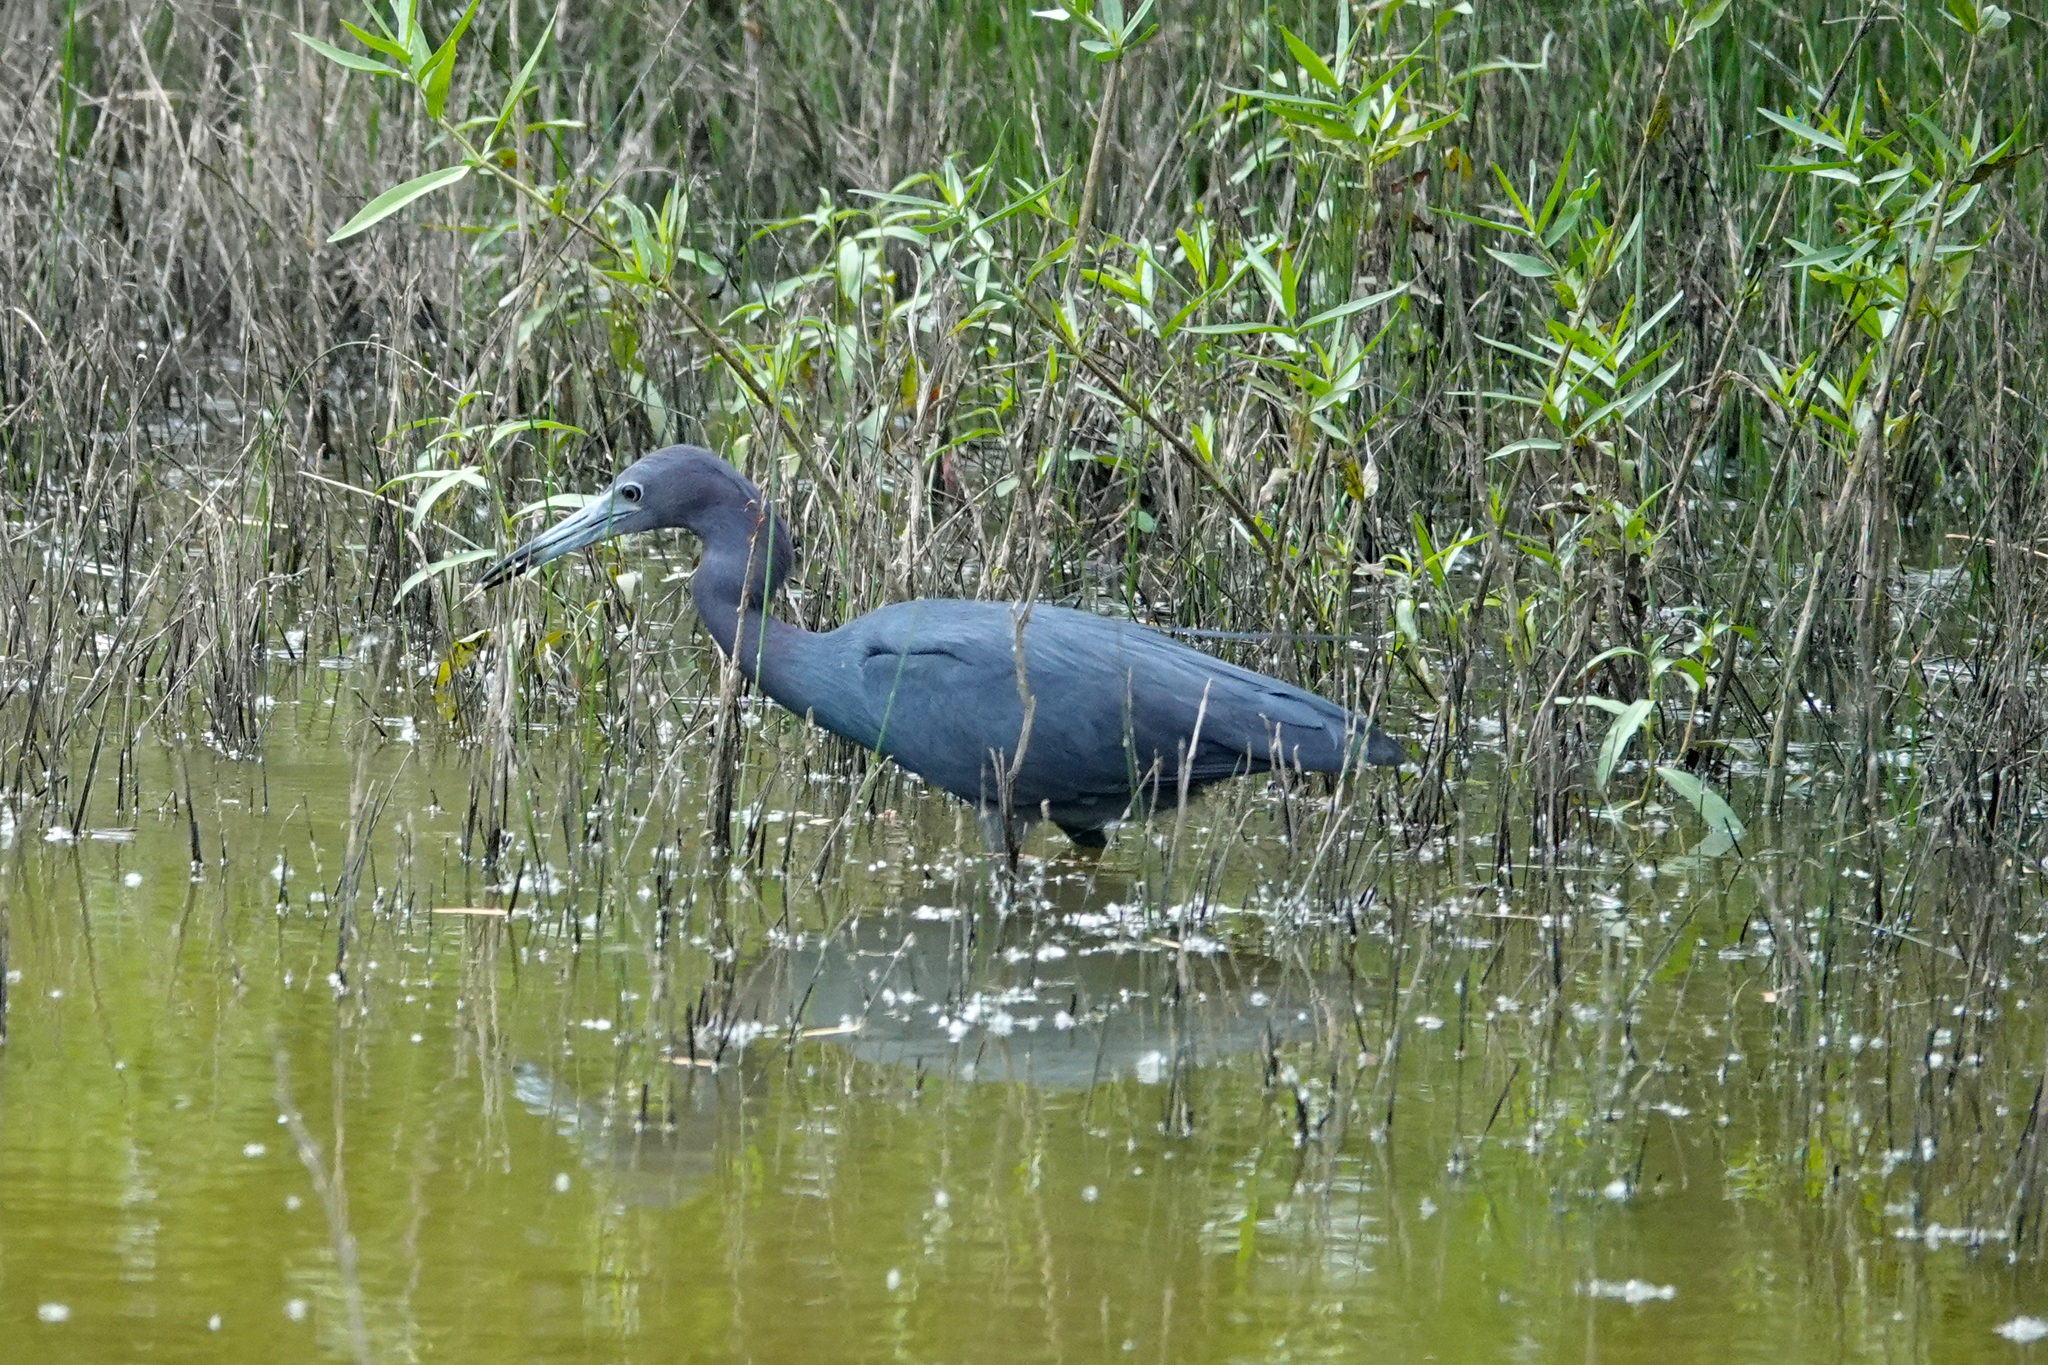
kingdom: Animalia
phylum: Chordata
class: Aves
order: Pelecaniformes
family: Ardeidae
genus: Egretta
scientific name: Egretta caerulea
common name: Little blue heron
